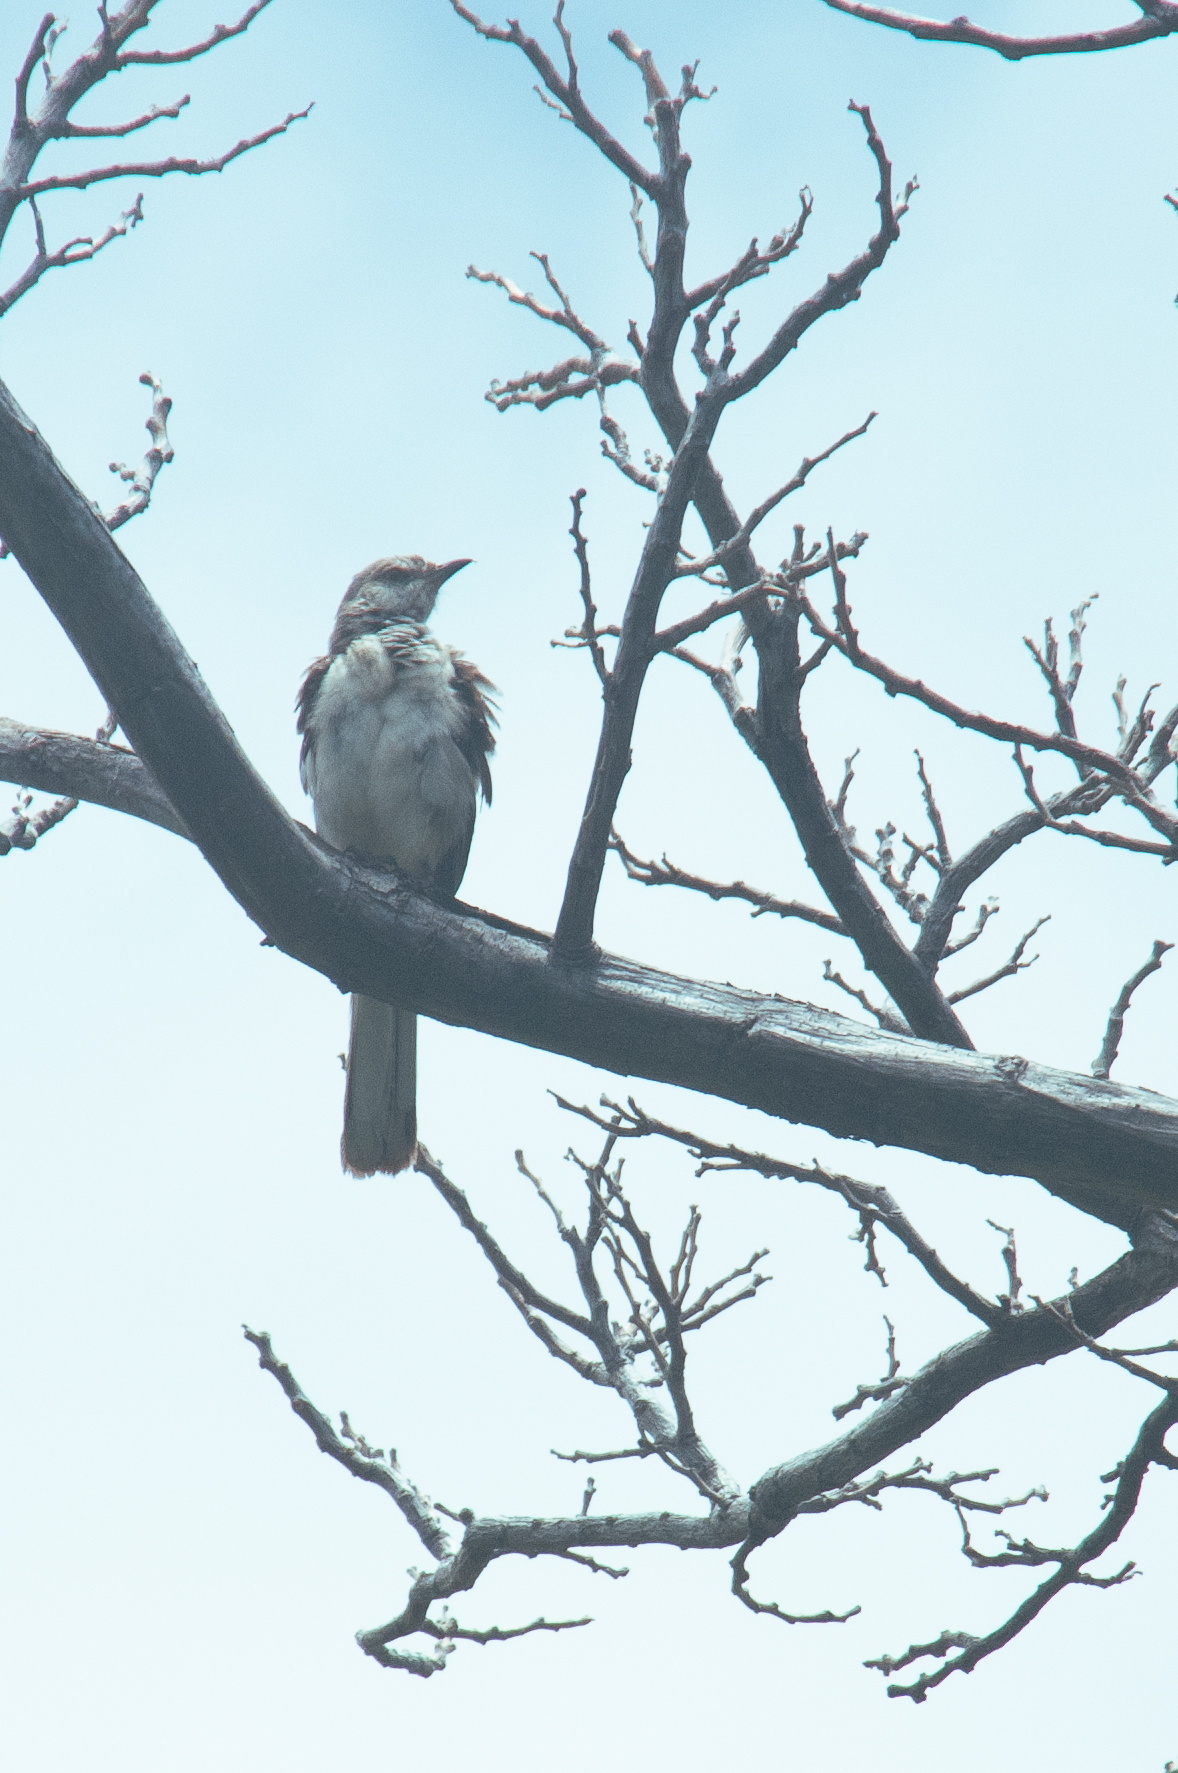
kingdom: Animalia
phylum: Chordata
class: Aves
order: Passeriformes
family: Mimidae
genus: Mimus
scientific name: Mimus polyglottos
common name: Northern mockingbird
